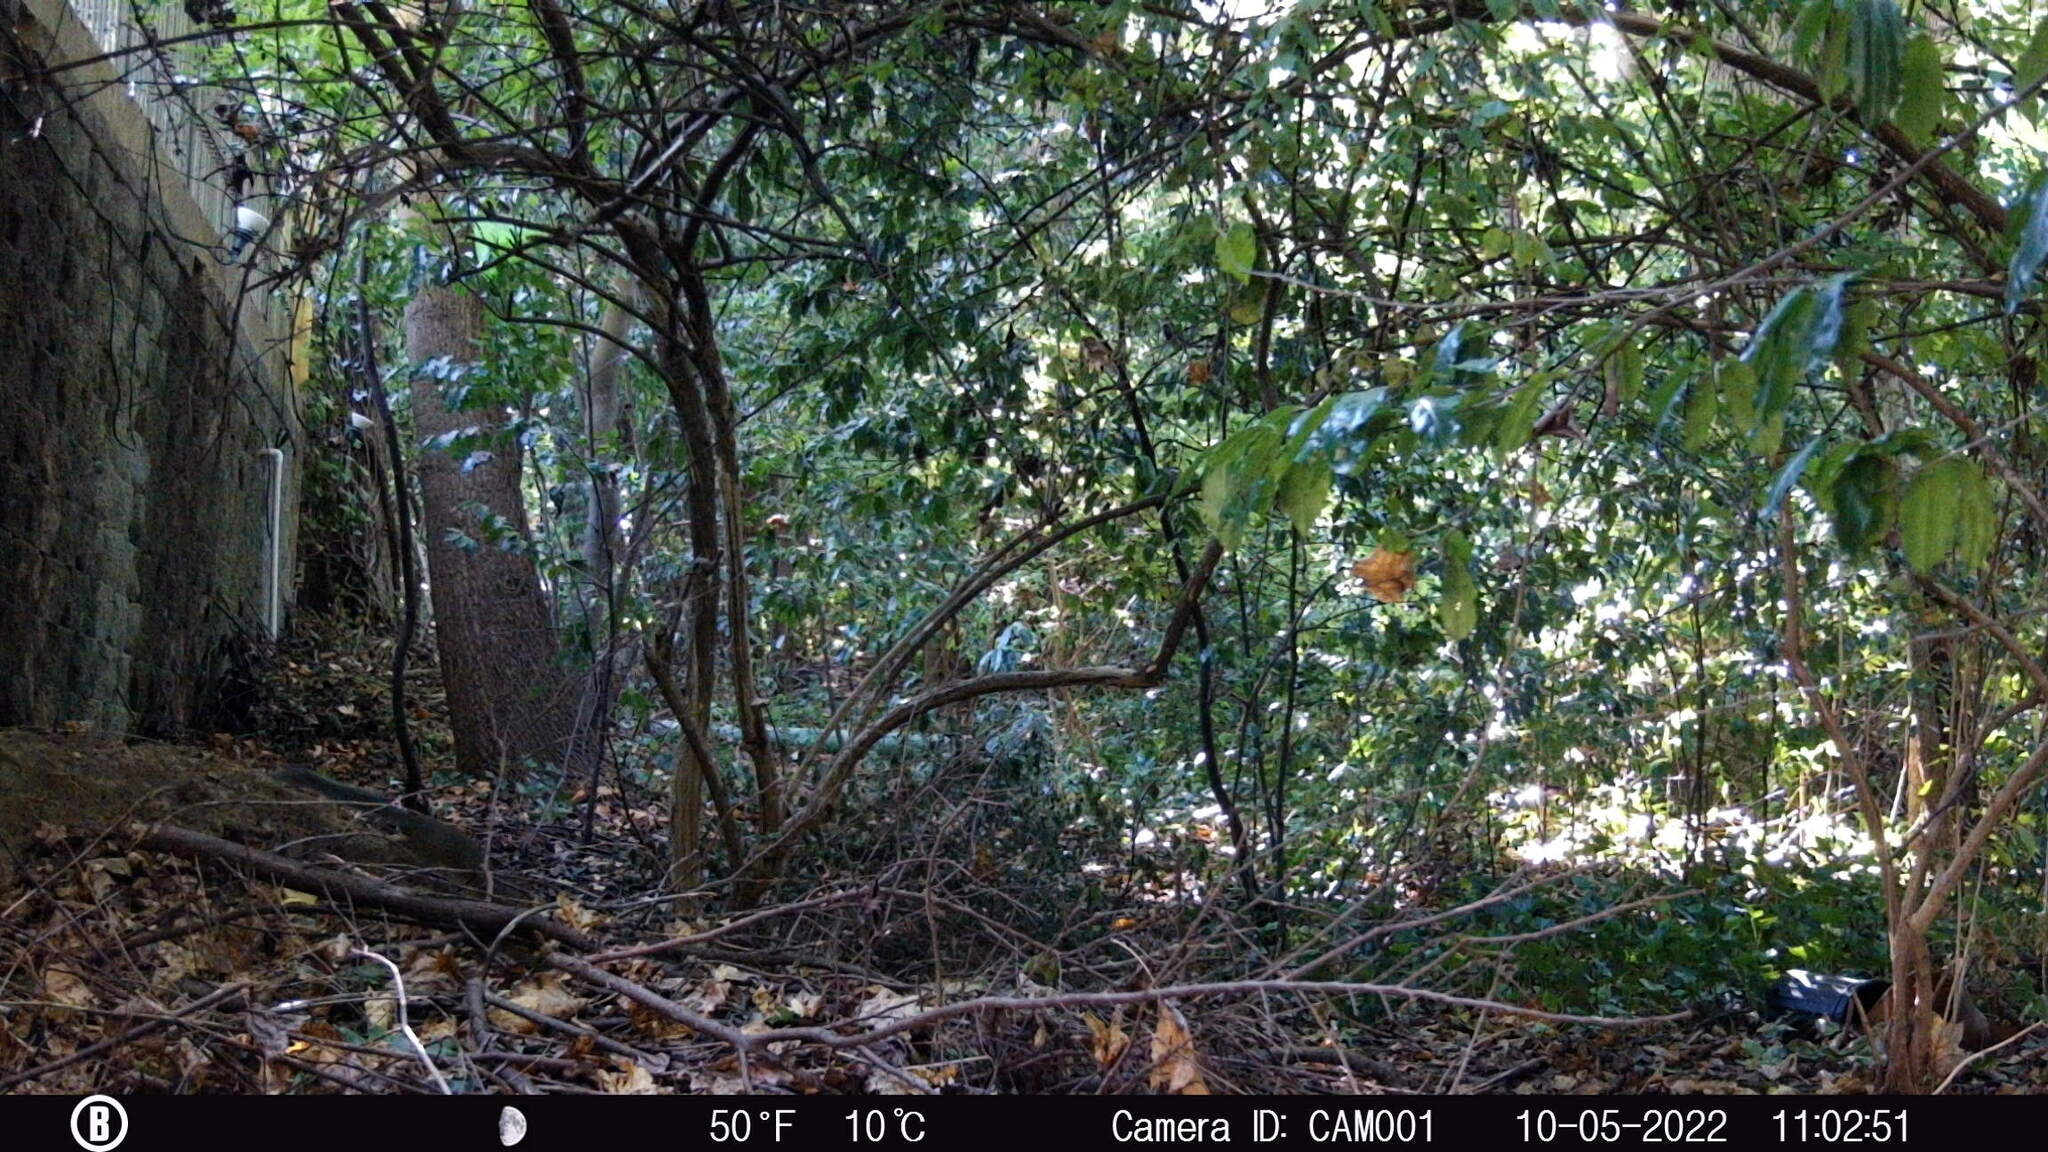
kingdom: Animalia
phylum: Chordata
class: Mammalia
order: Rodentia
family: Sciuridae
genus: Sciurus
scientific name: Sciurus carolinensis
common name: Eastern gray squirrel
